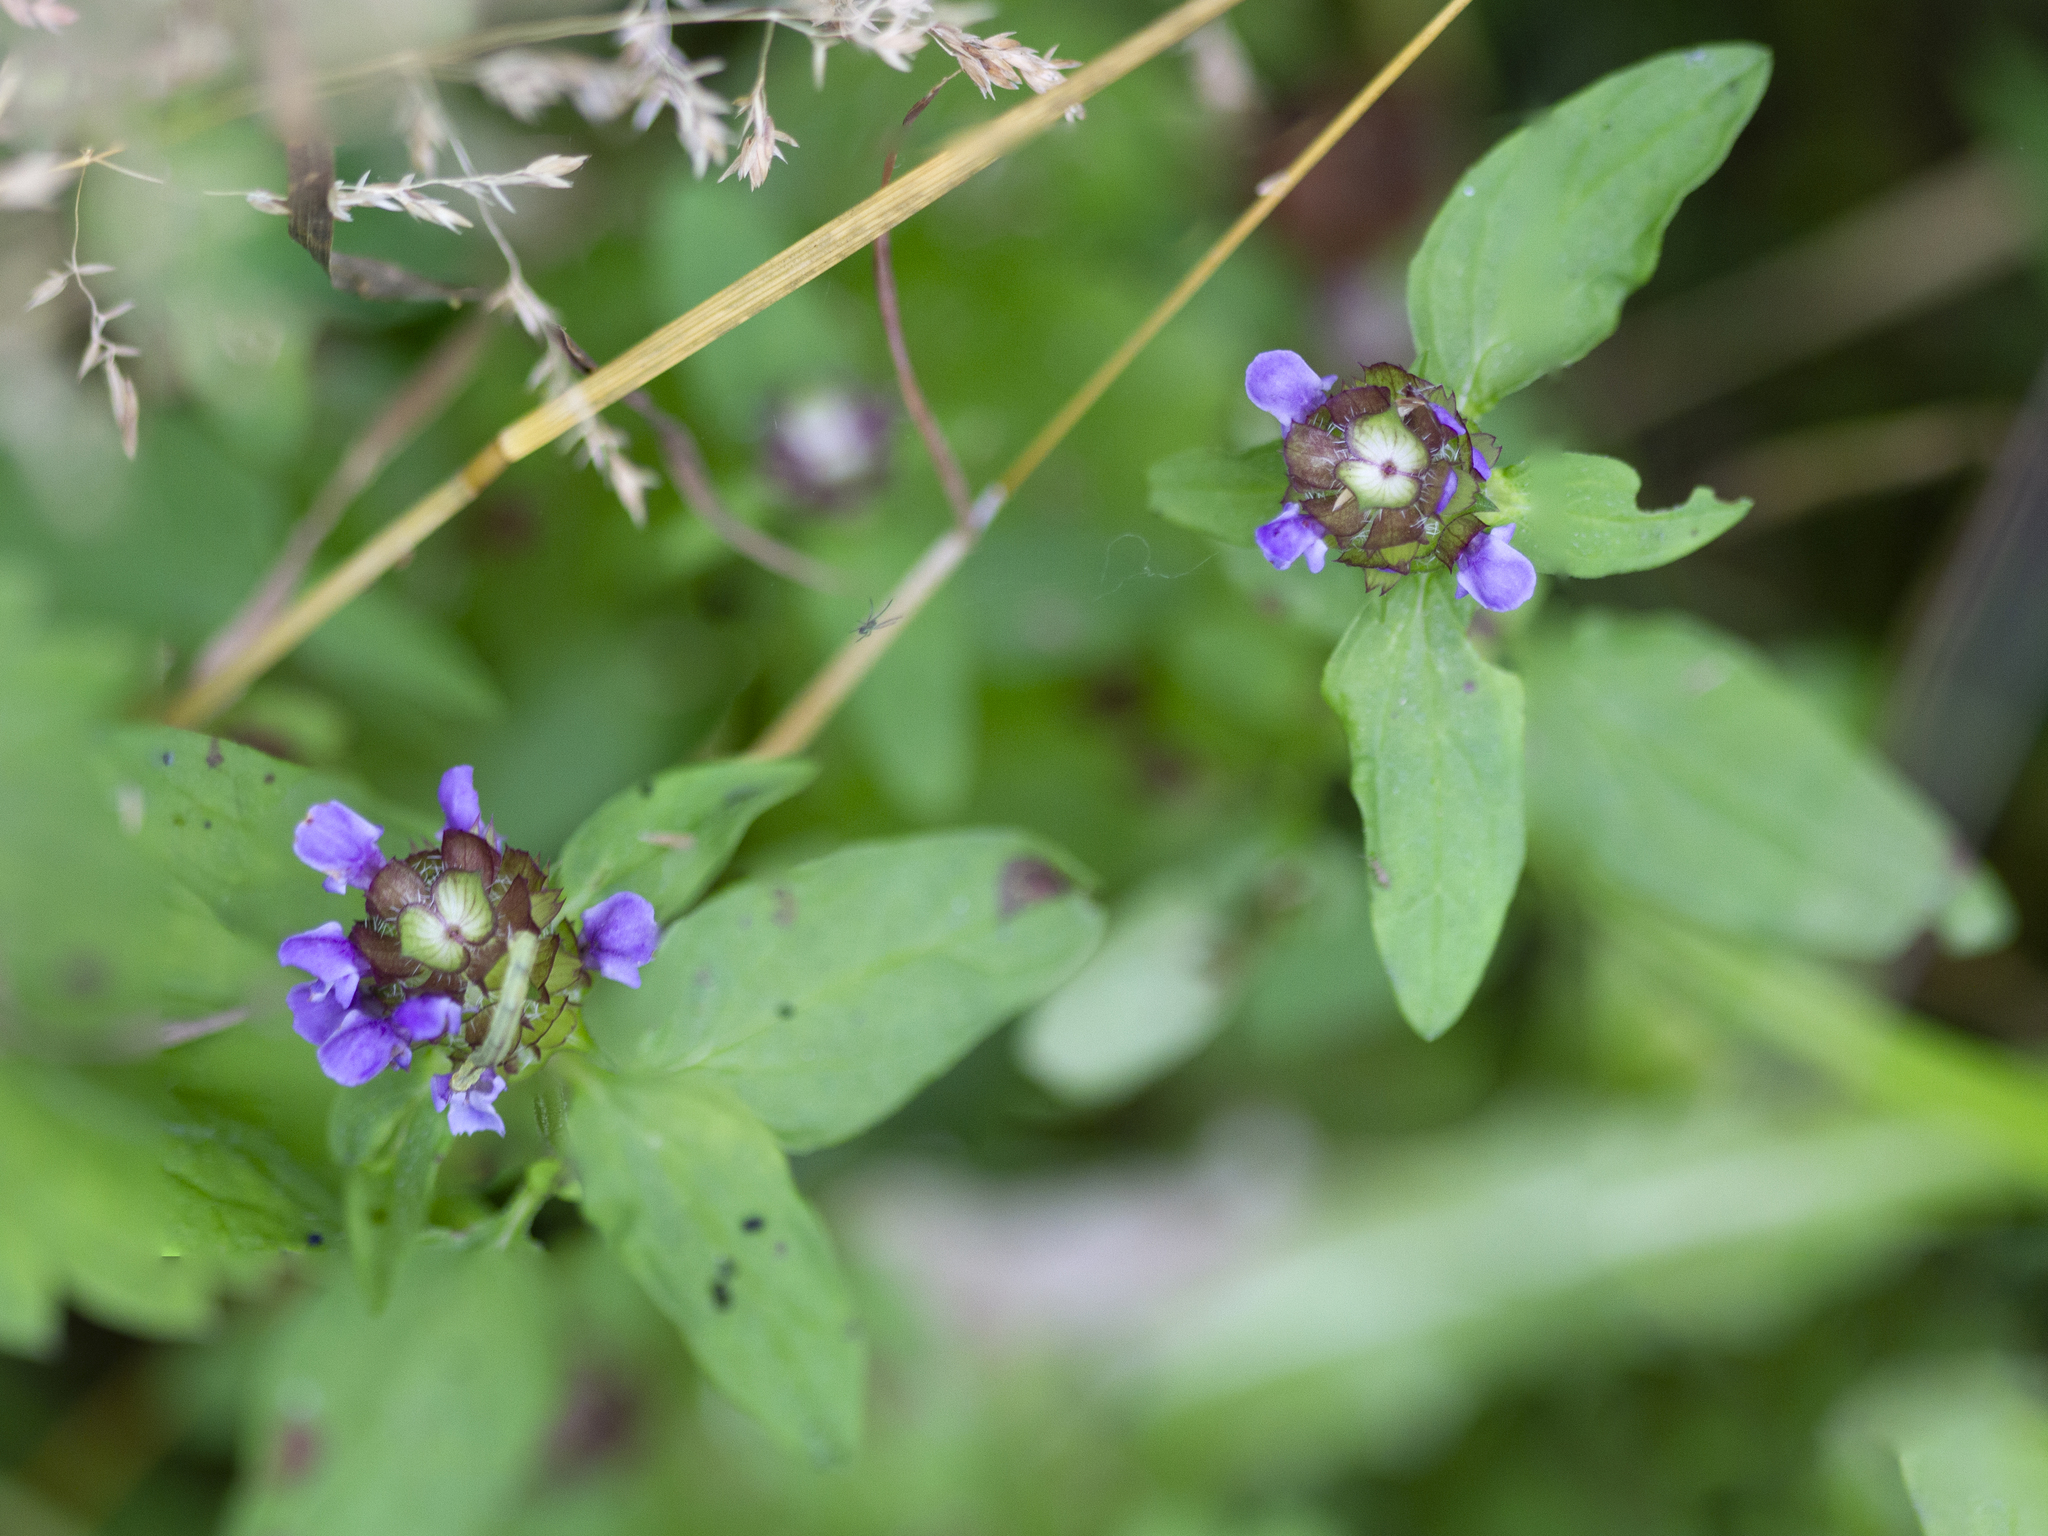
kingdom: Plantae
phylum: Tracheophyta
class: Magnoliopsida
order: Lamiales
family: Lamiaceae
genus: Prunella
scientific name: Prunella vulgaris
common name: Heal-all
